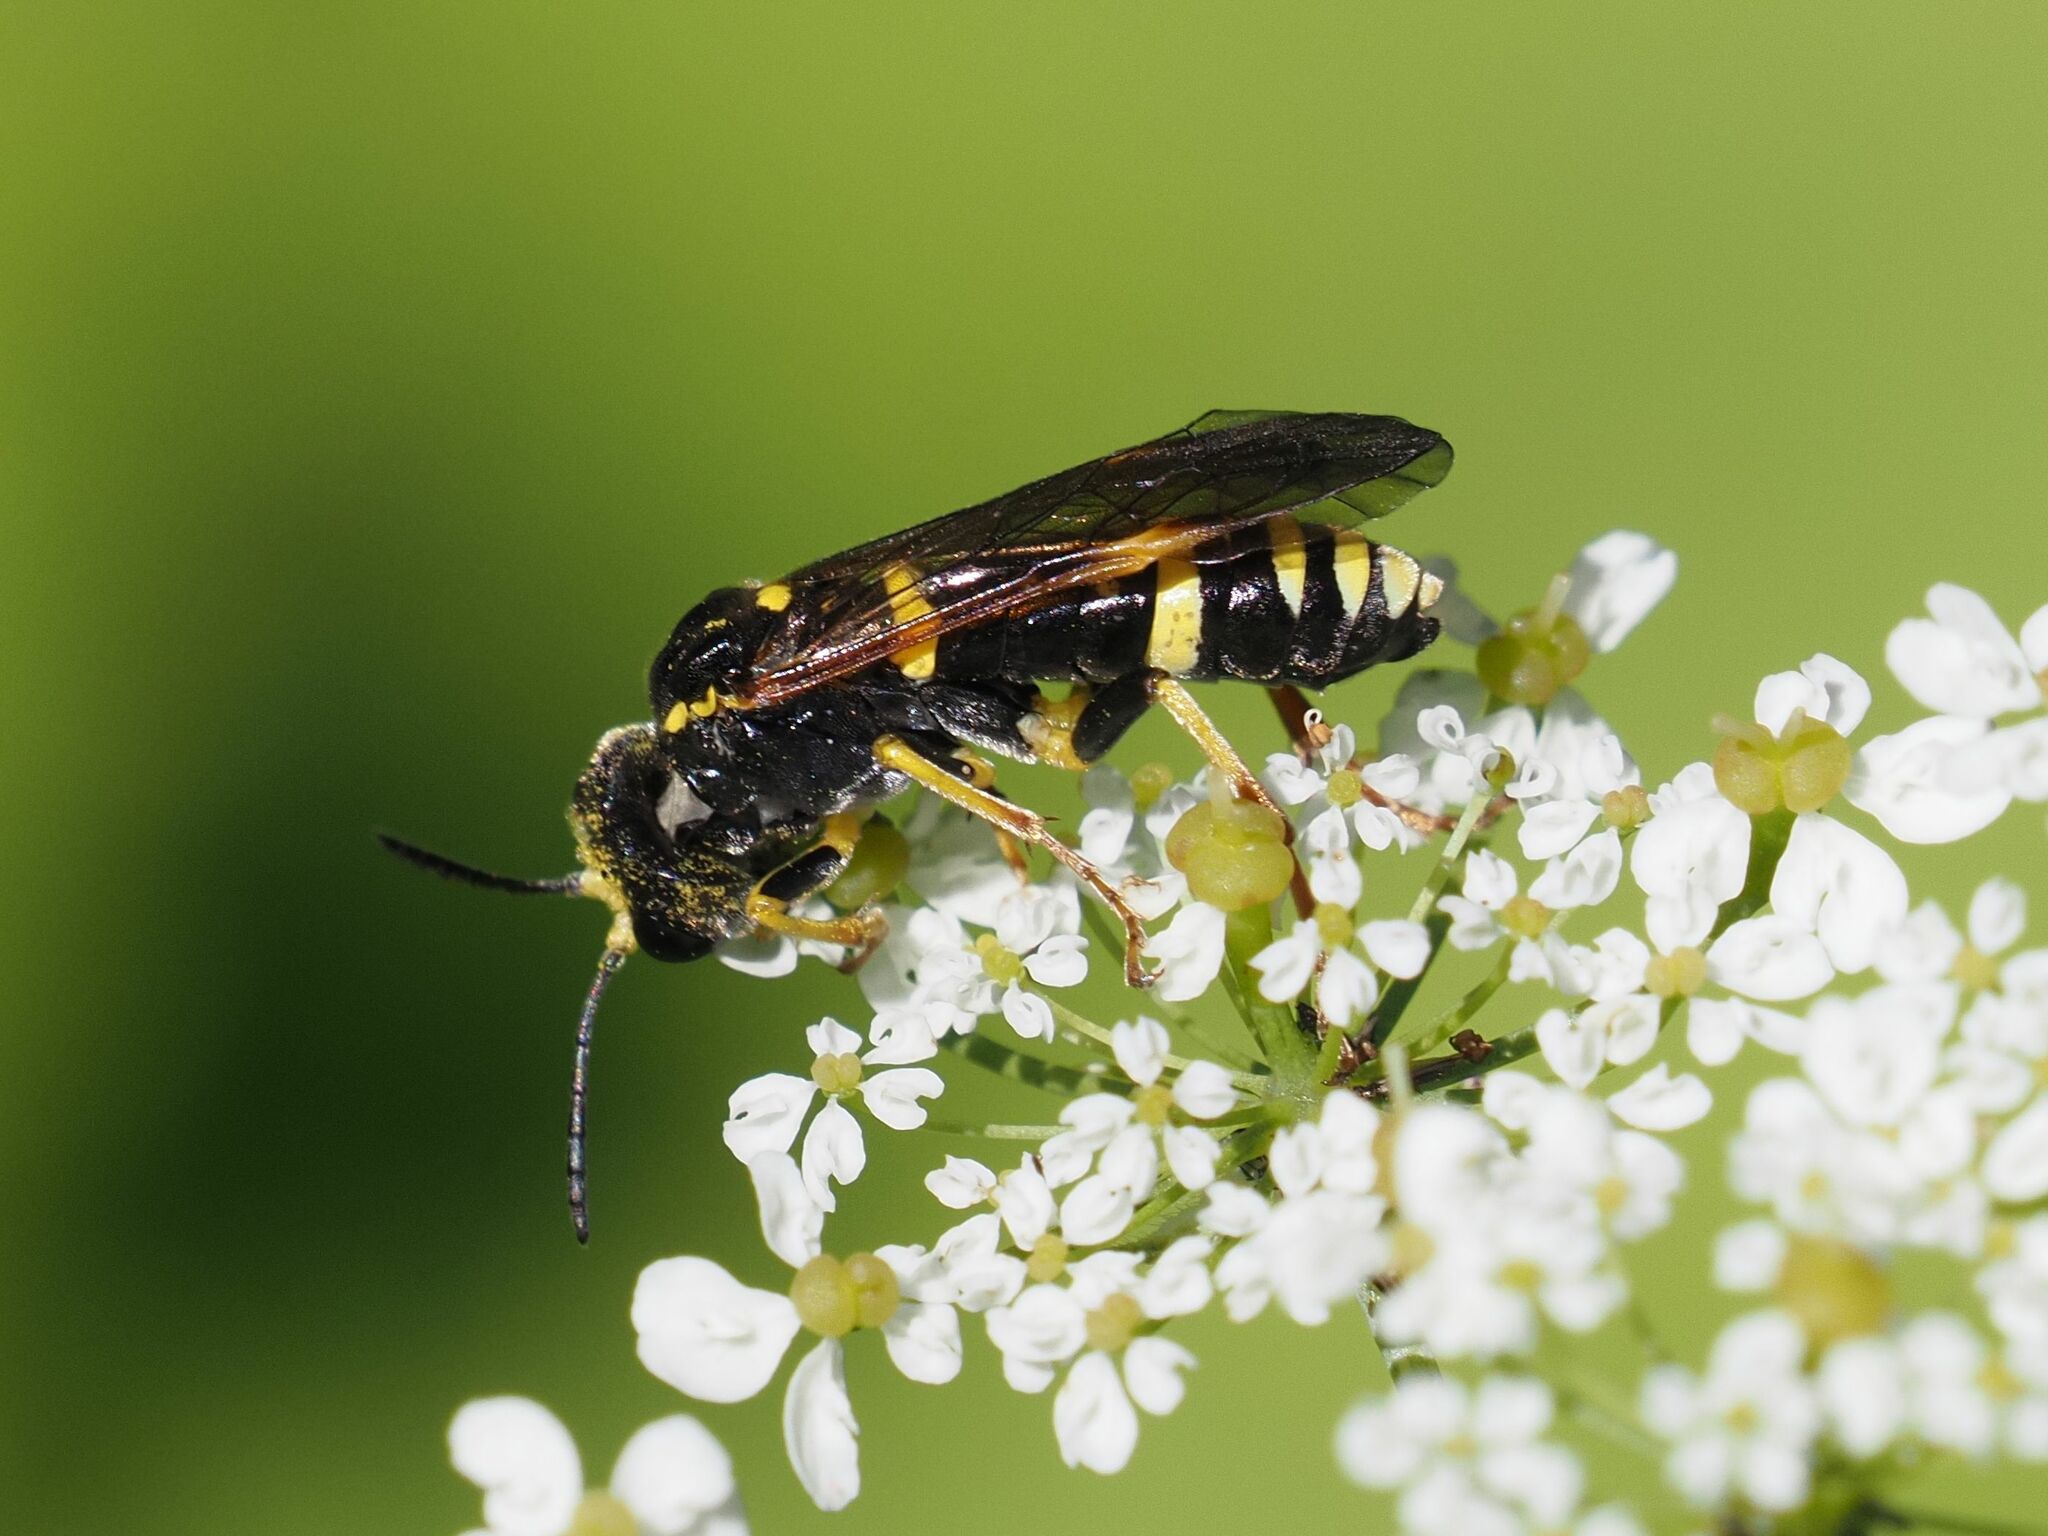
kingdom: Animalia
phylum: Arthropoda
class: Insecta
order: Hymenoptera
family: Tenthredinidae
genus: Tenthredo
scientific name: Tenthredo amoena
